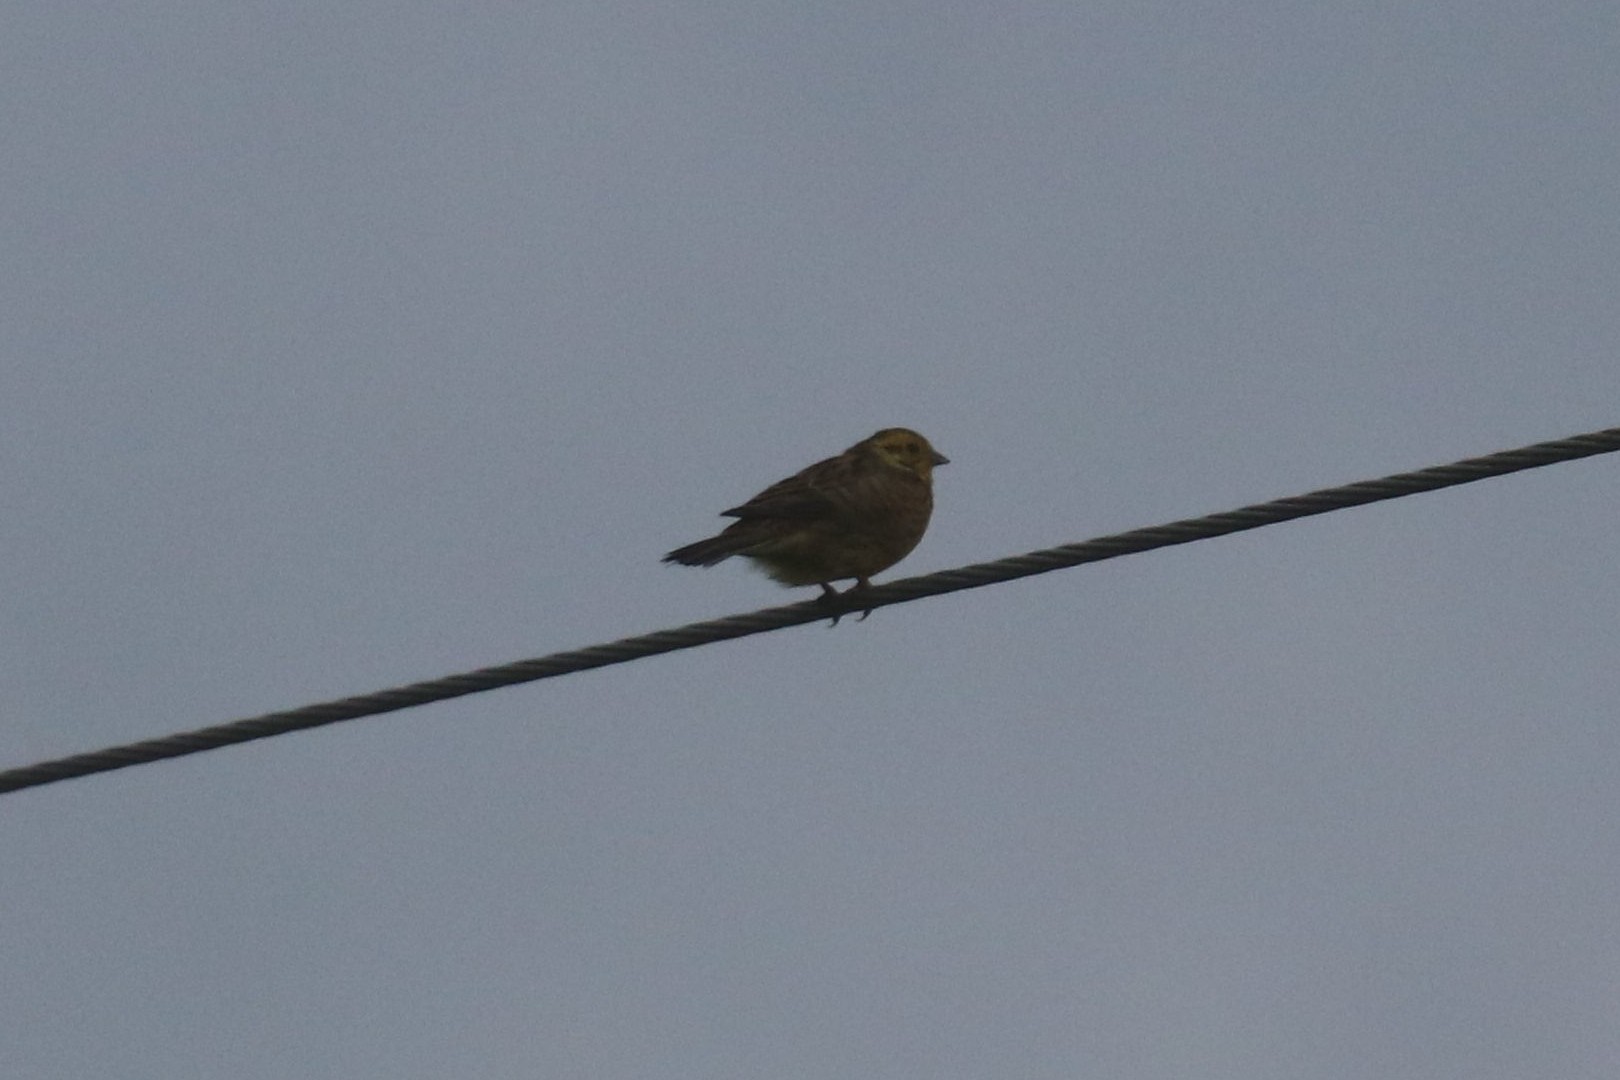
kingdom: Animalia
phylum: Chordata
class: Aves
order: Passeriformes
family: Emberizidae
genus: Emberiza
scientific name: Emberiza citrinella
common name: Yellowhammer
